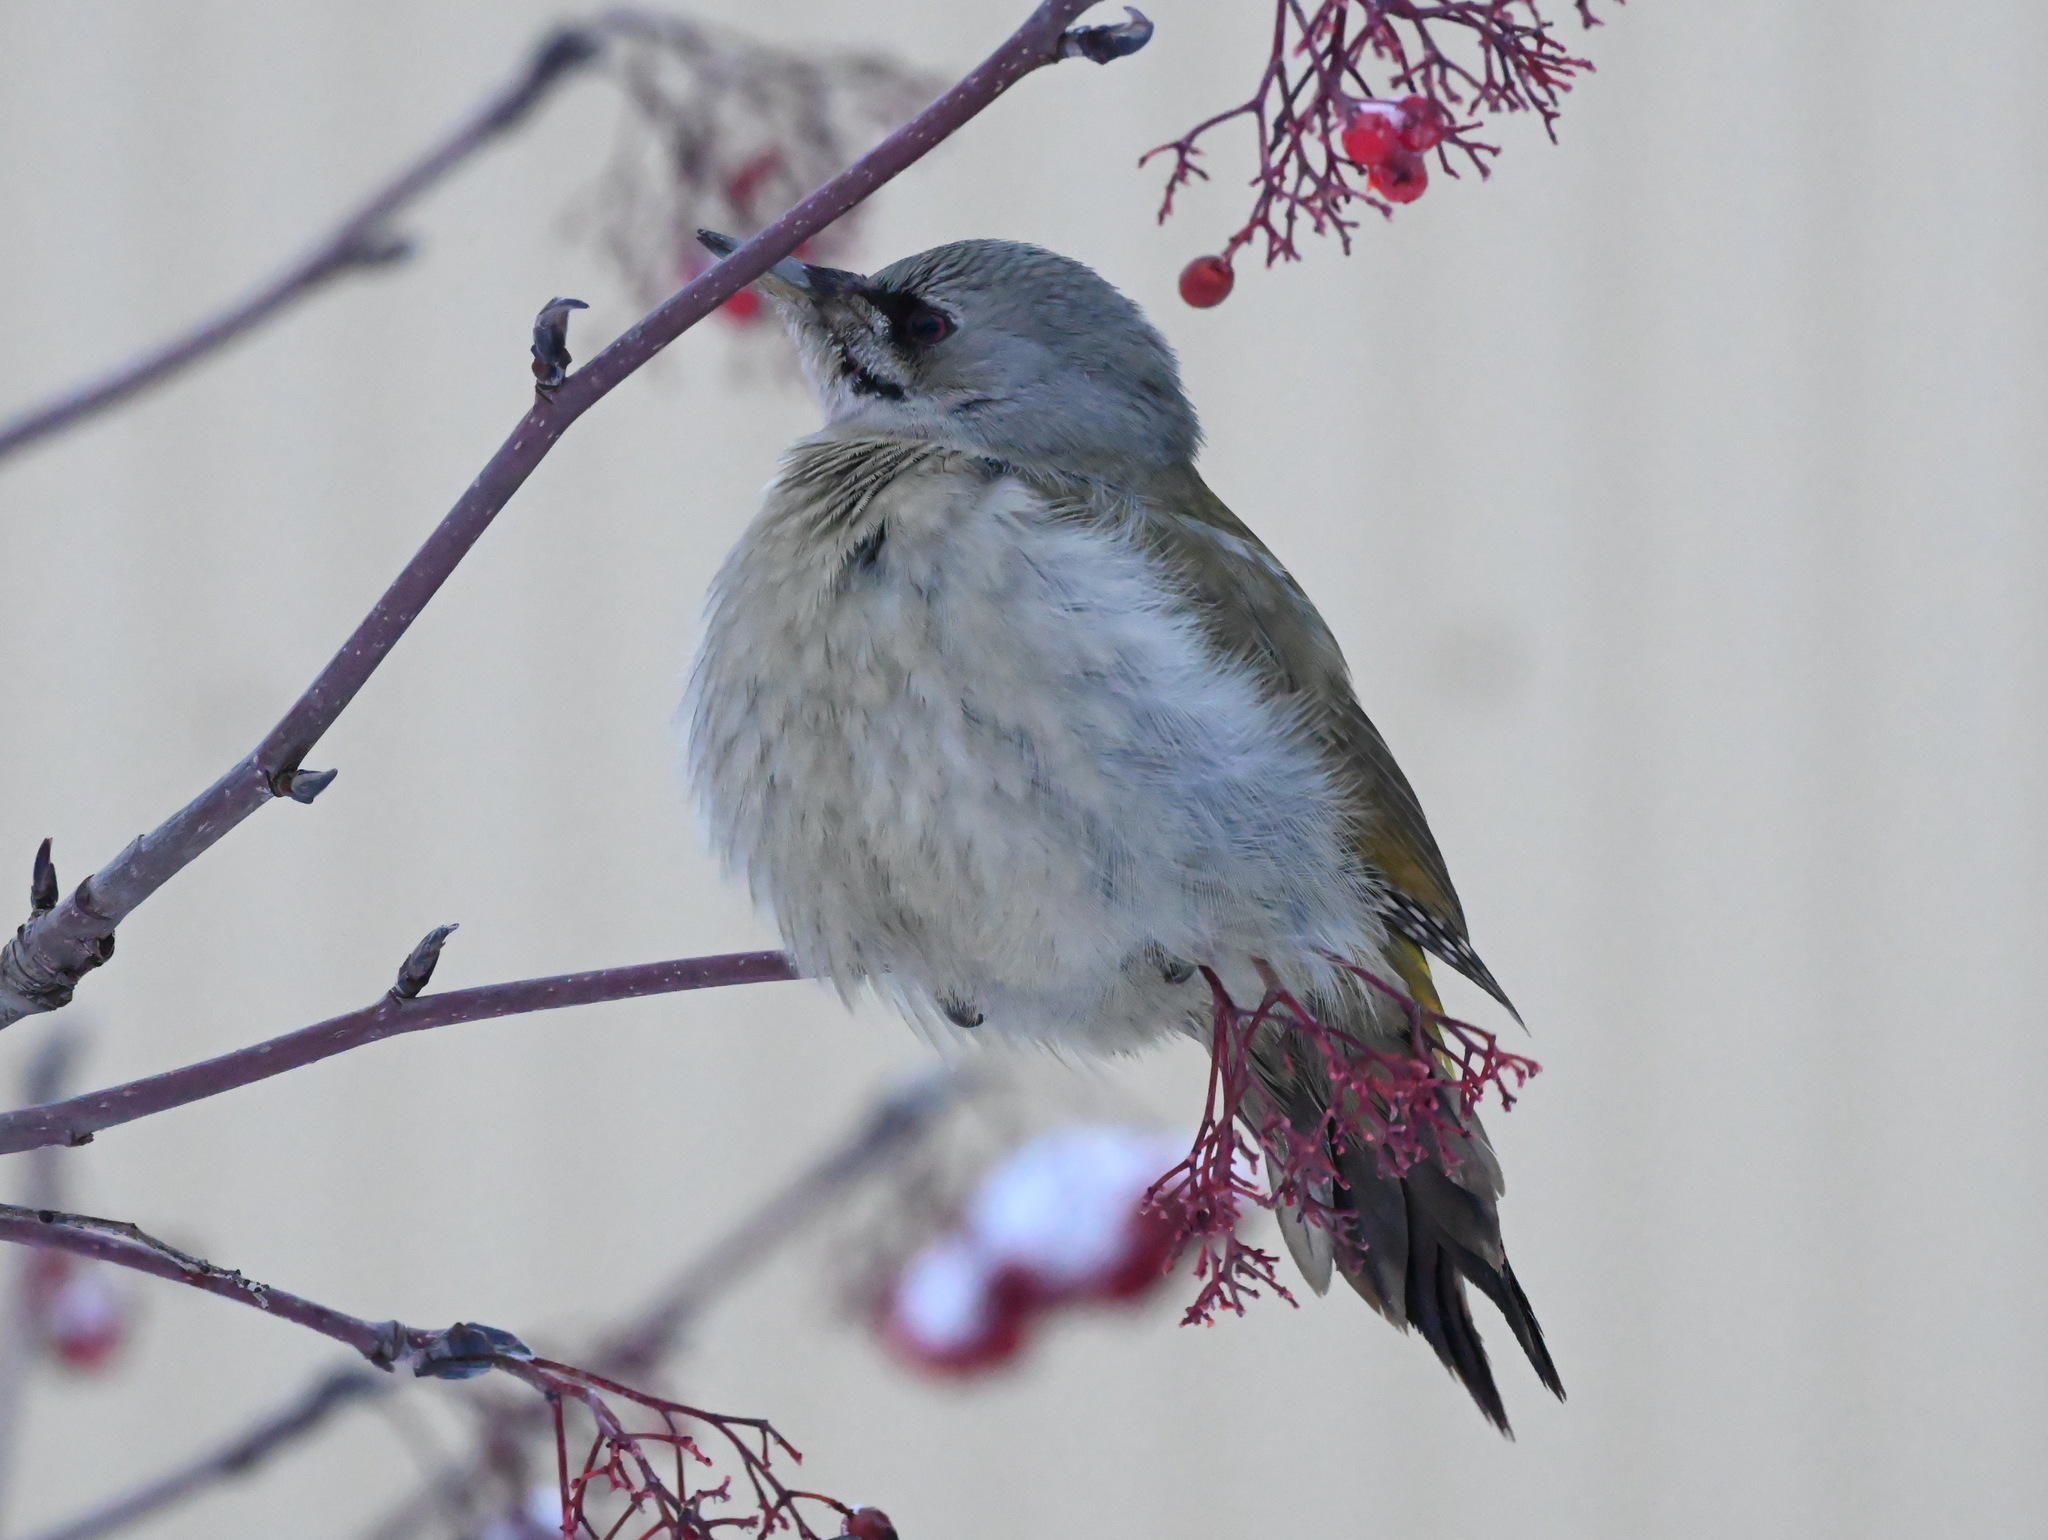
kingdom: Animalia
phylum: Chordata
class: Aves
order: Piciformes
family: Picidae
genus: Picus
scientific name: Picus canus
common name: Grey-headed woodpecker
